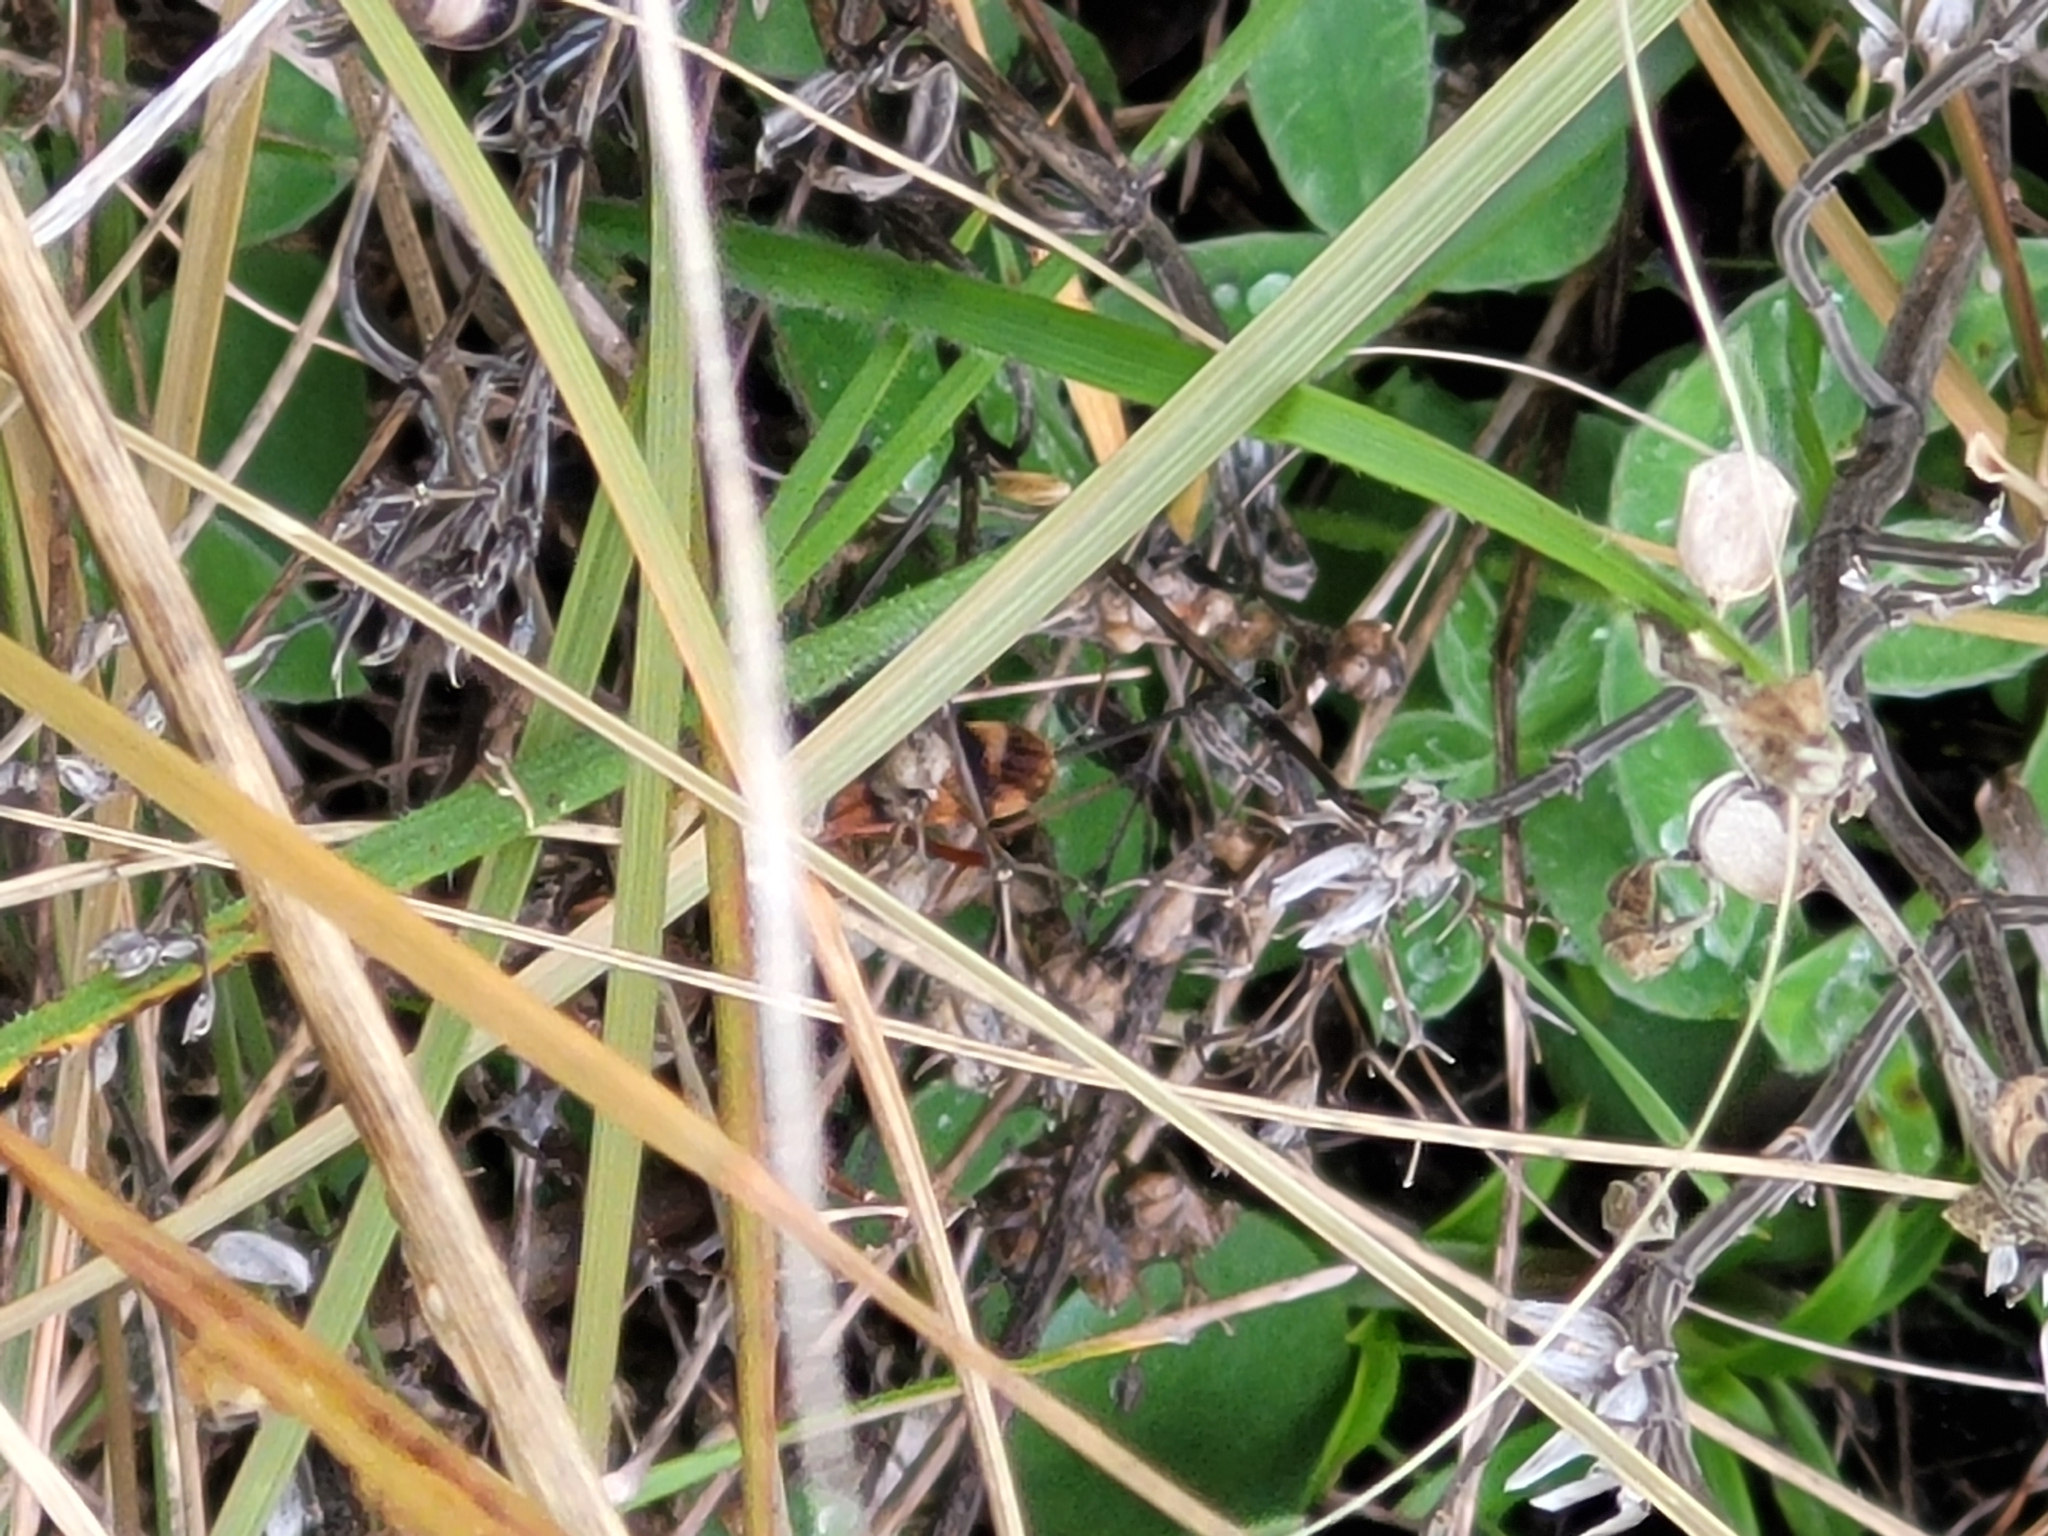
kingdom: Animalia
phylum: Arthropoda
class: Insecta
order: Hymenoptera
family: Ichneumonidae
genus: Compsocryptus
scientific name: Compsocryptus texensis
